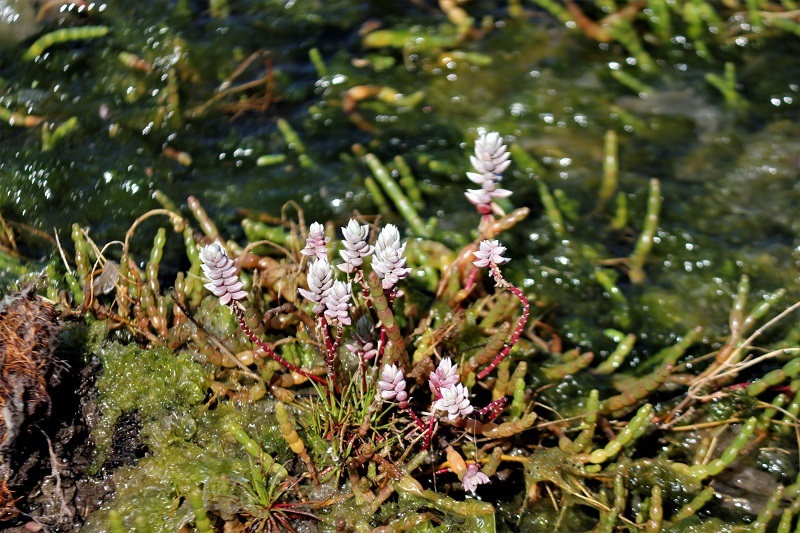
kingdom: Plantae
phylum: Tracheophyta
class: Magnoliopsida
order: Caryophyllales
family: Amaranthaceae
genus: Chenolea
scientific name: Chenolea diffusa
